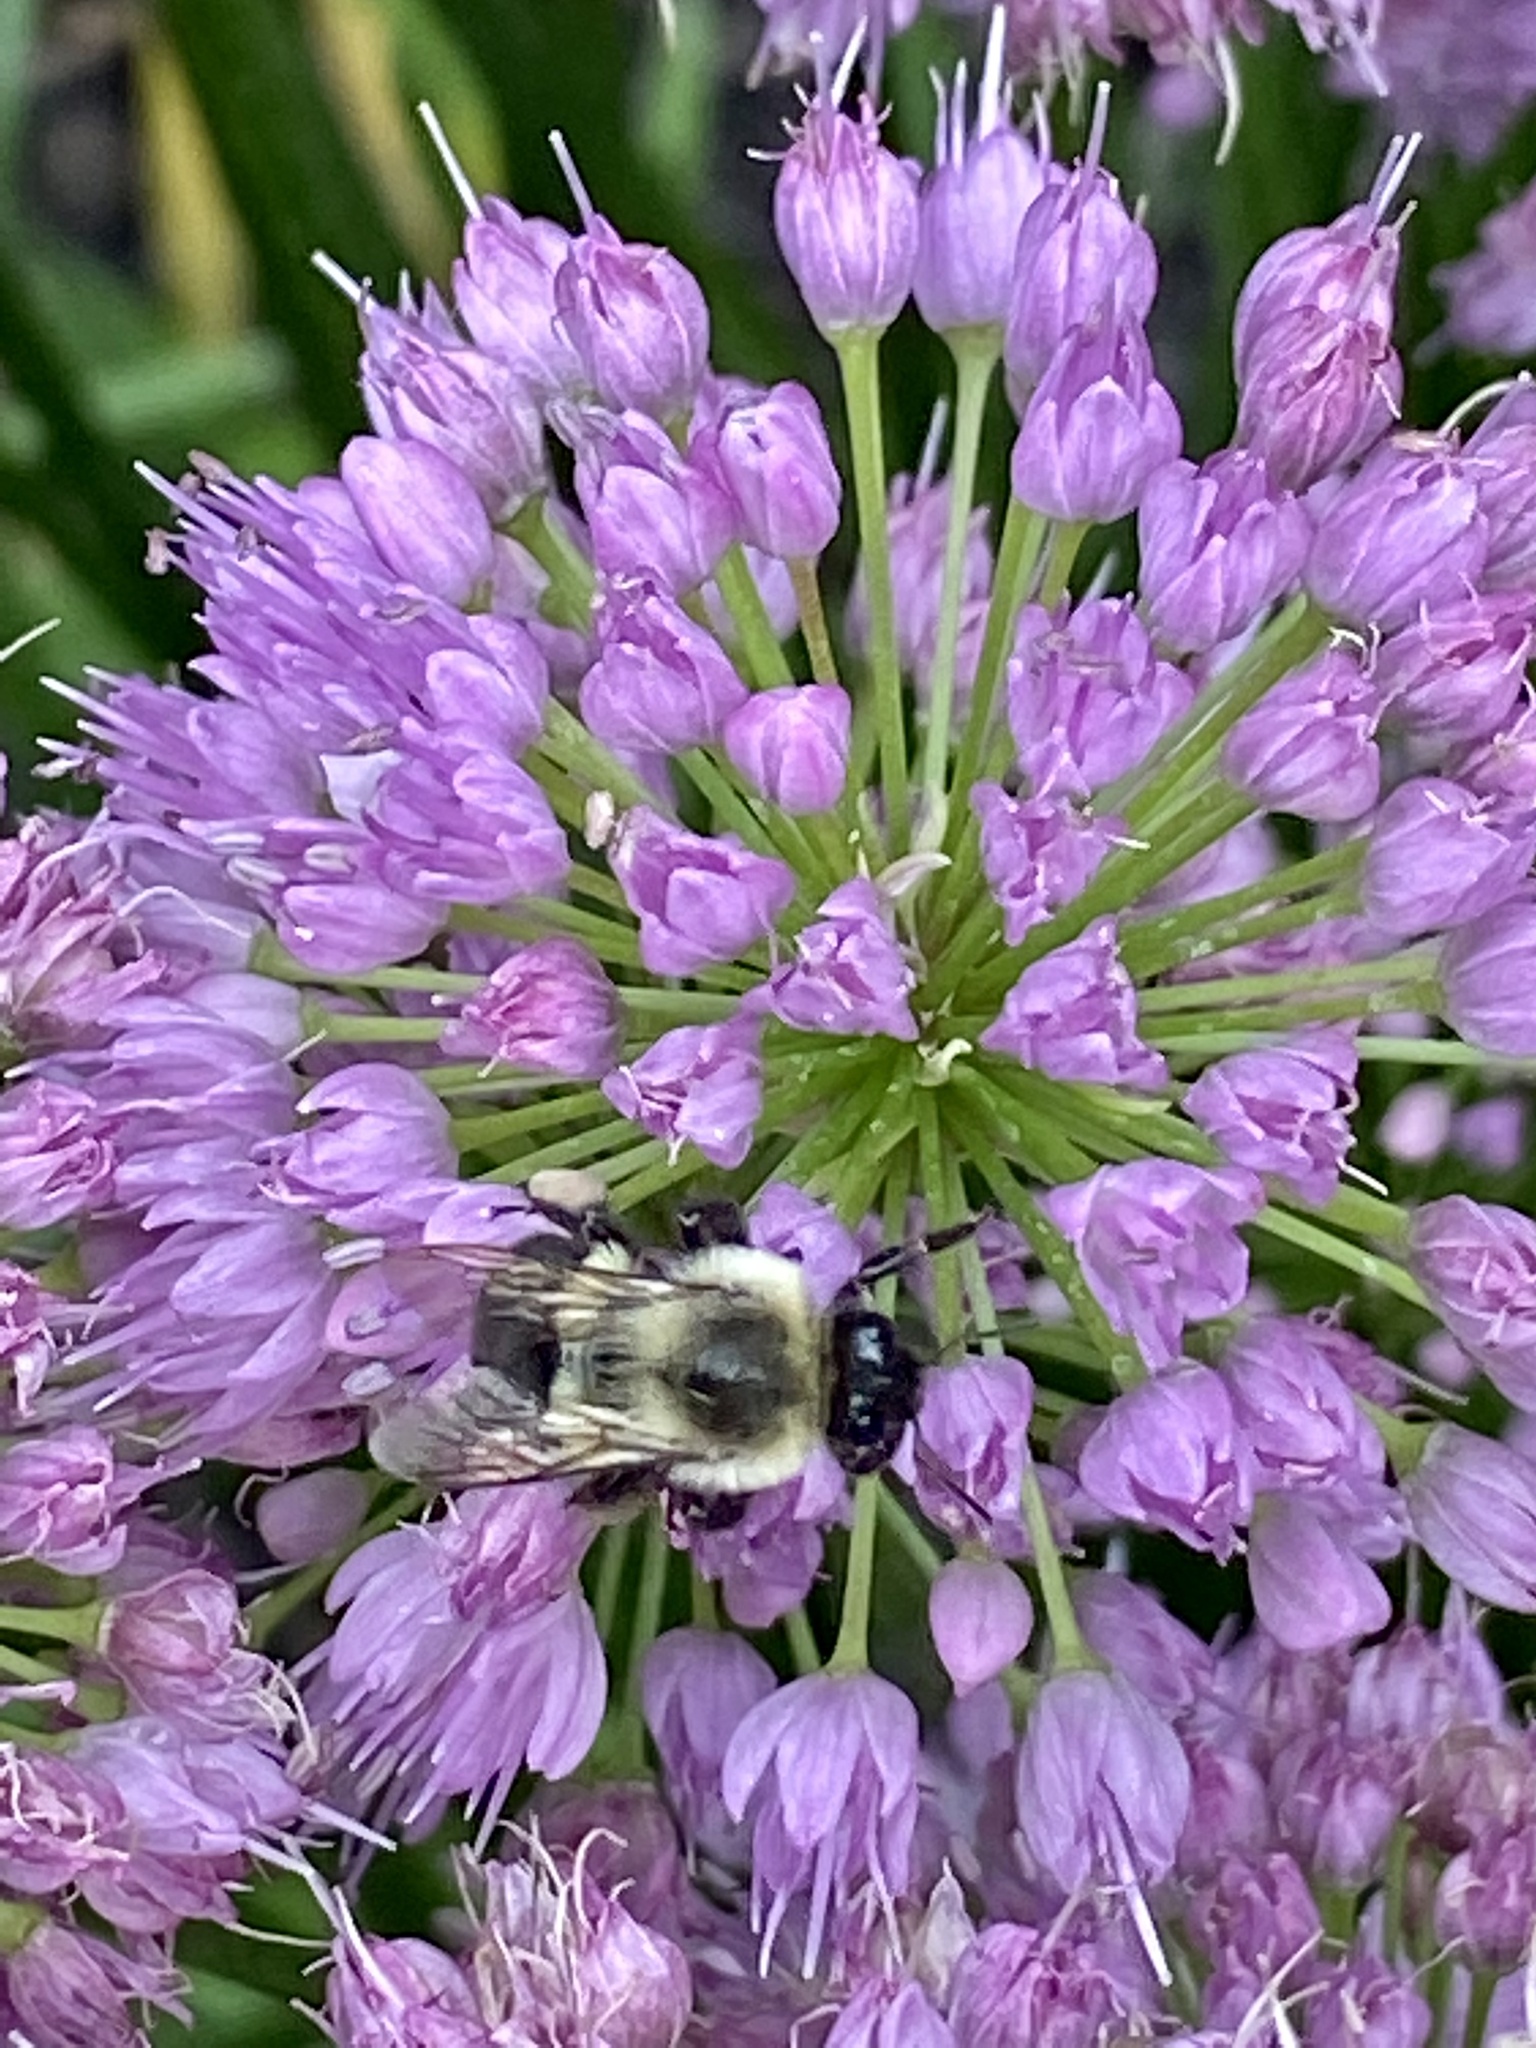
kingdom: Animalia
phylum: Arthropoda
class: Insecta
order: Hymenoptera
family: Apidae
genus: Bombus
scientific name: Bombus impatiens
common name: Common eastern bumble bee
